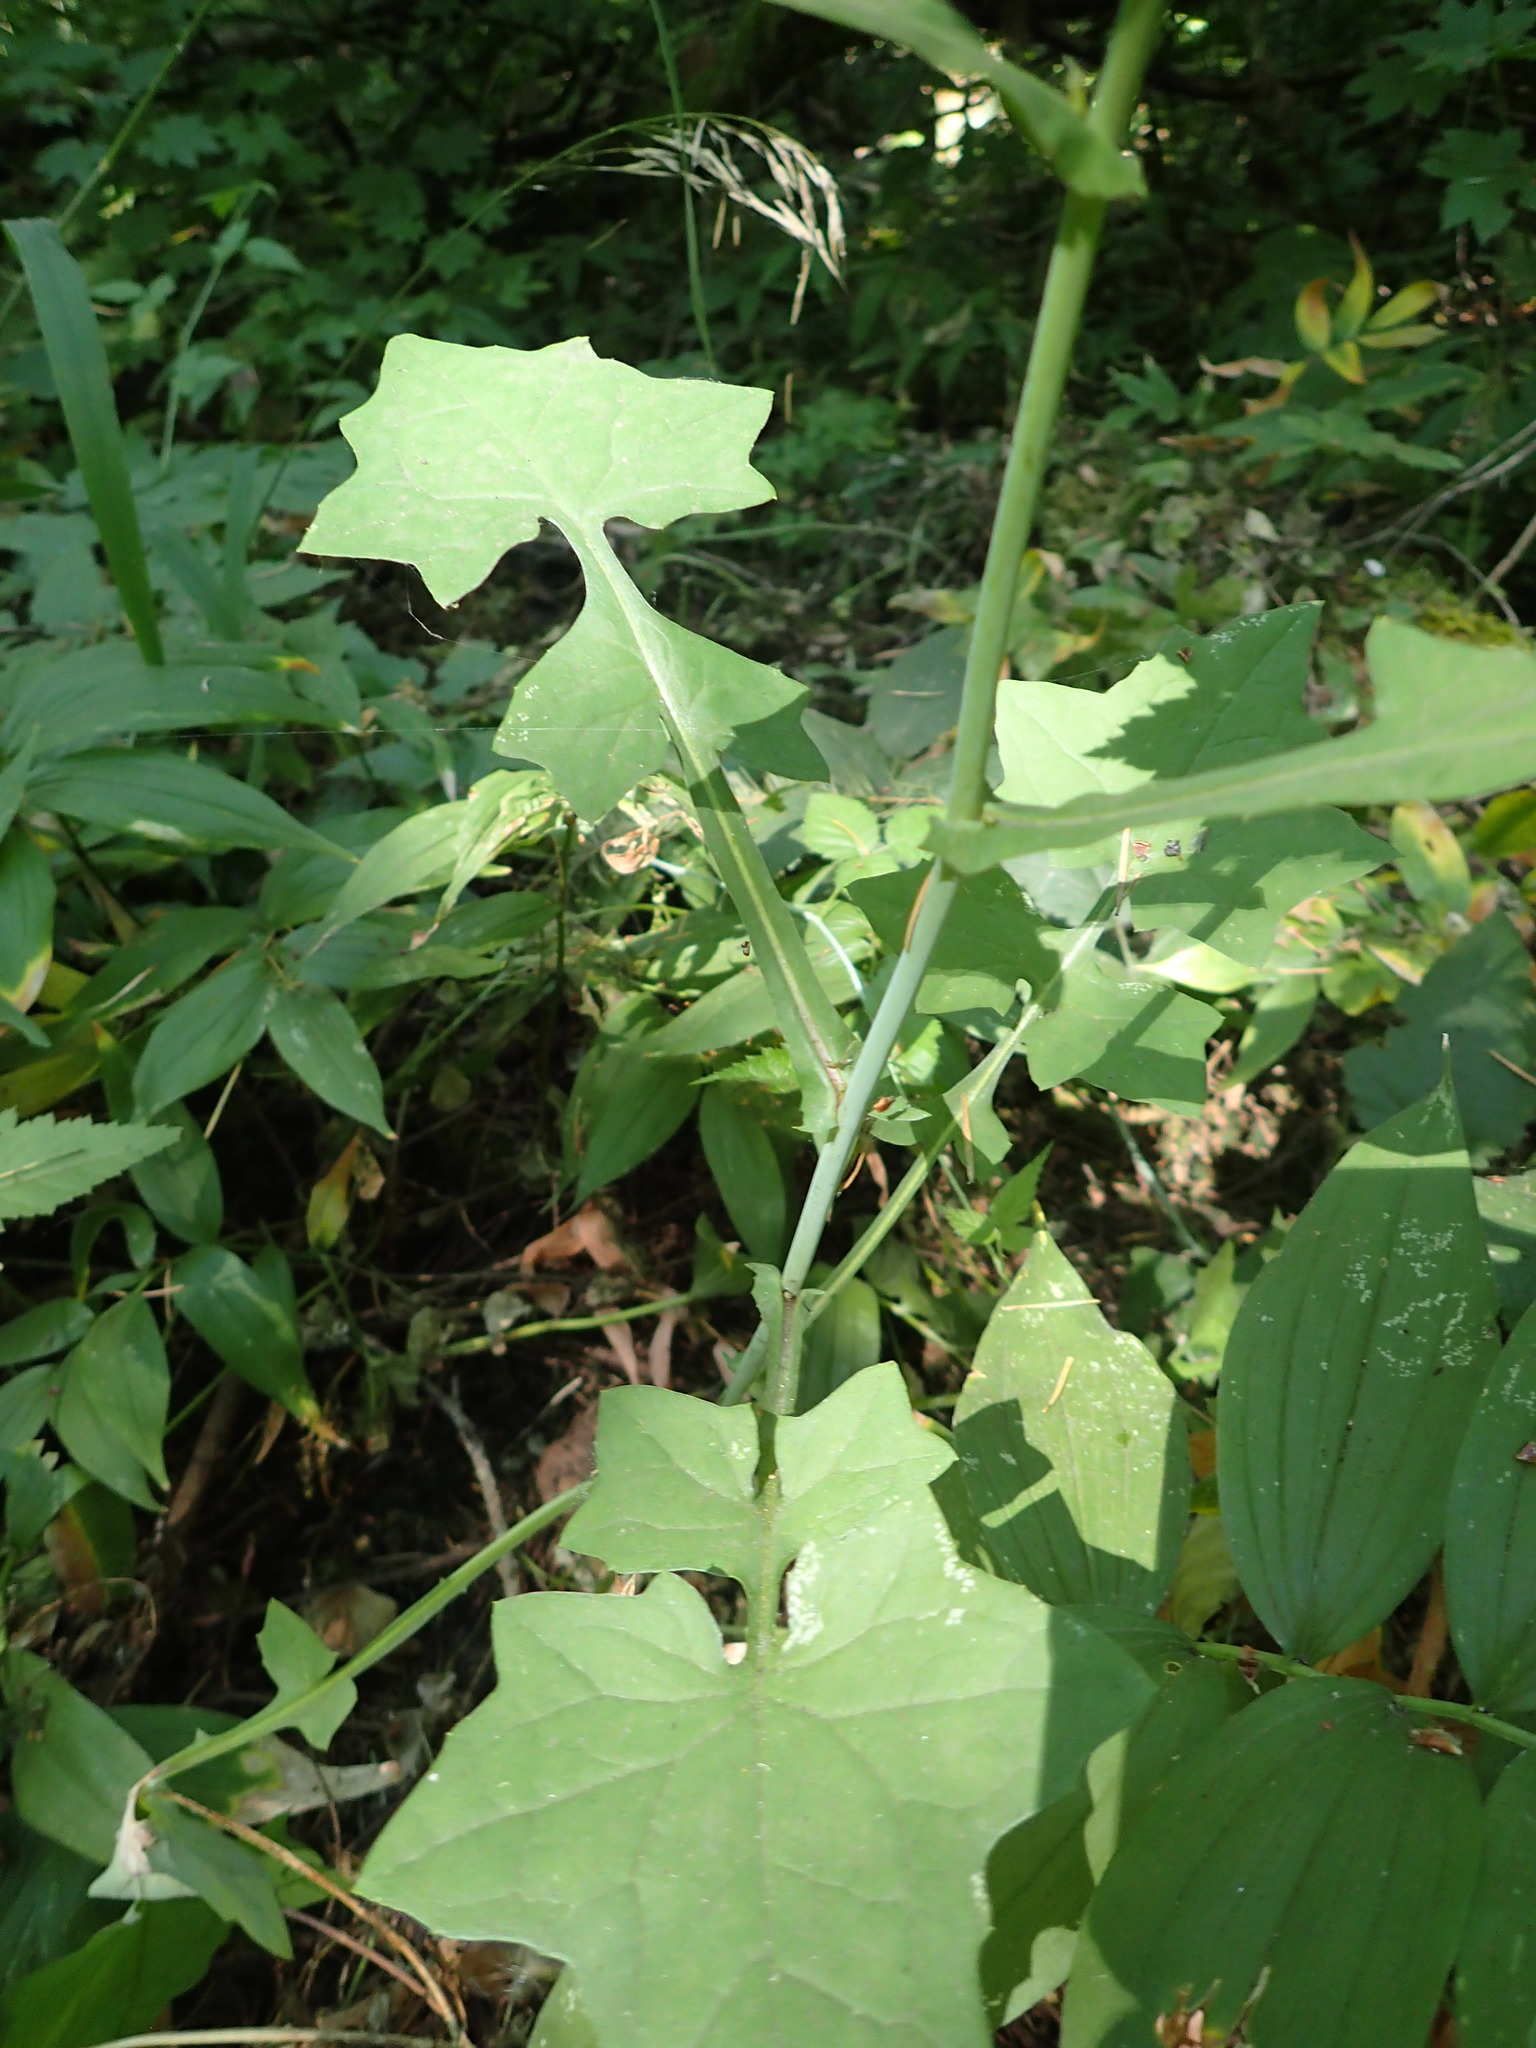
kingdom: Plantae
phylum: Tracheophyta
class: Magnoliopsida
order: Asterales
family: Asteraceae
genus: Mycelis
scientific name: Mycelis muralis
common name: Wall lettuce
